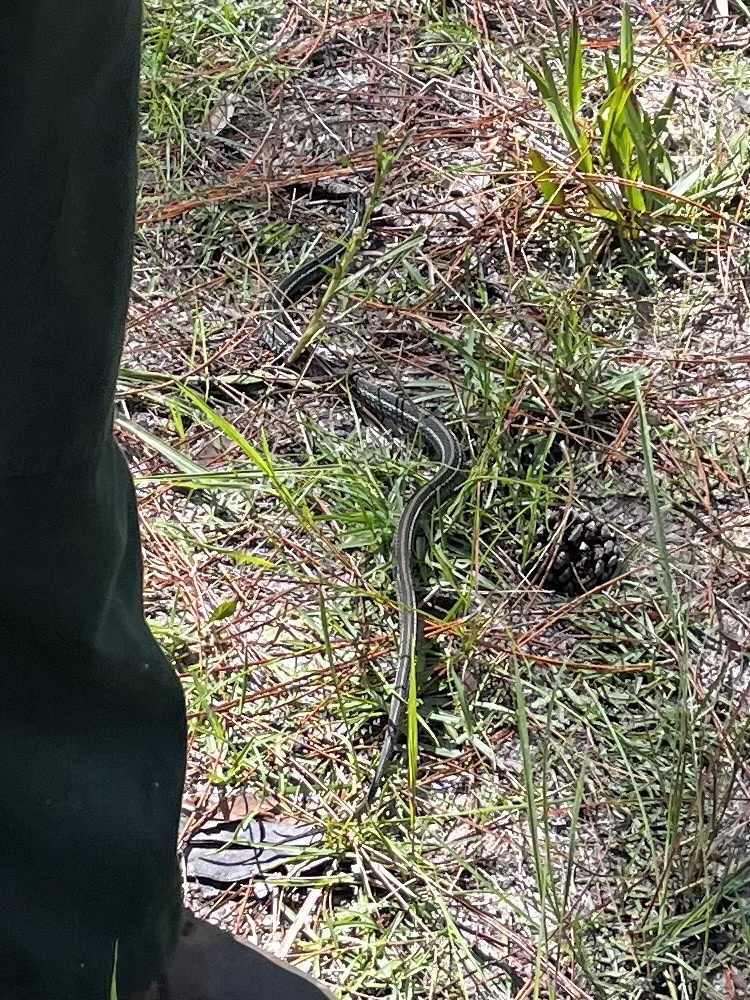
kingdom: Animalia
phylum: Chordata
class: Squamata
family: Colubridae
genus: Thamnophis
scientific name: Thamnophis
